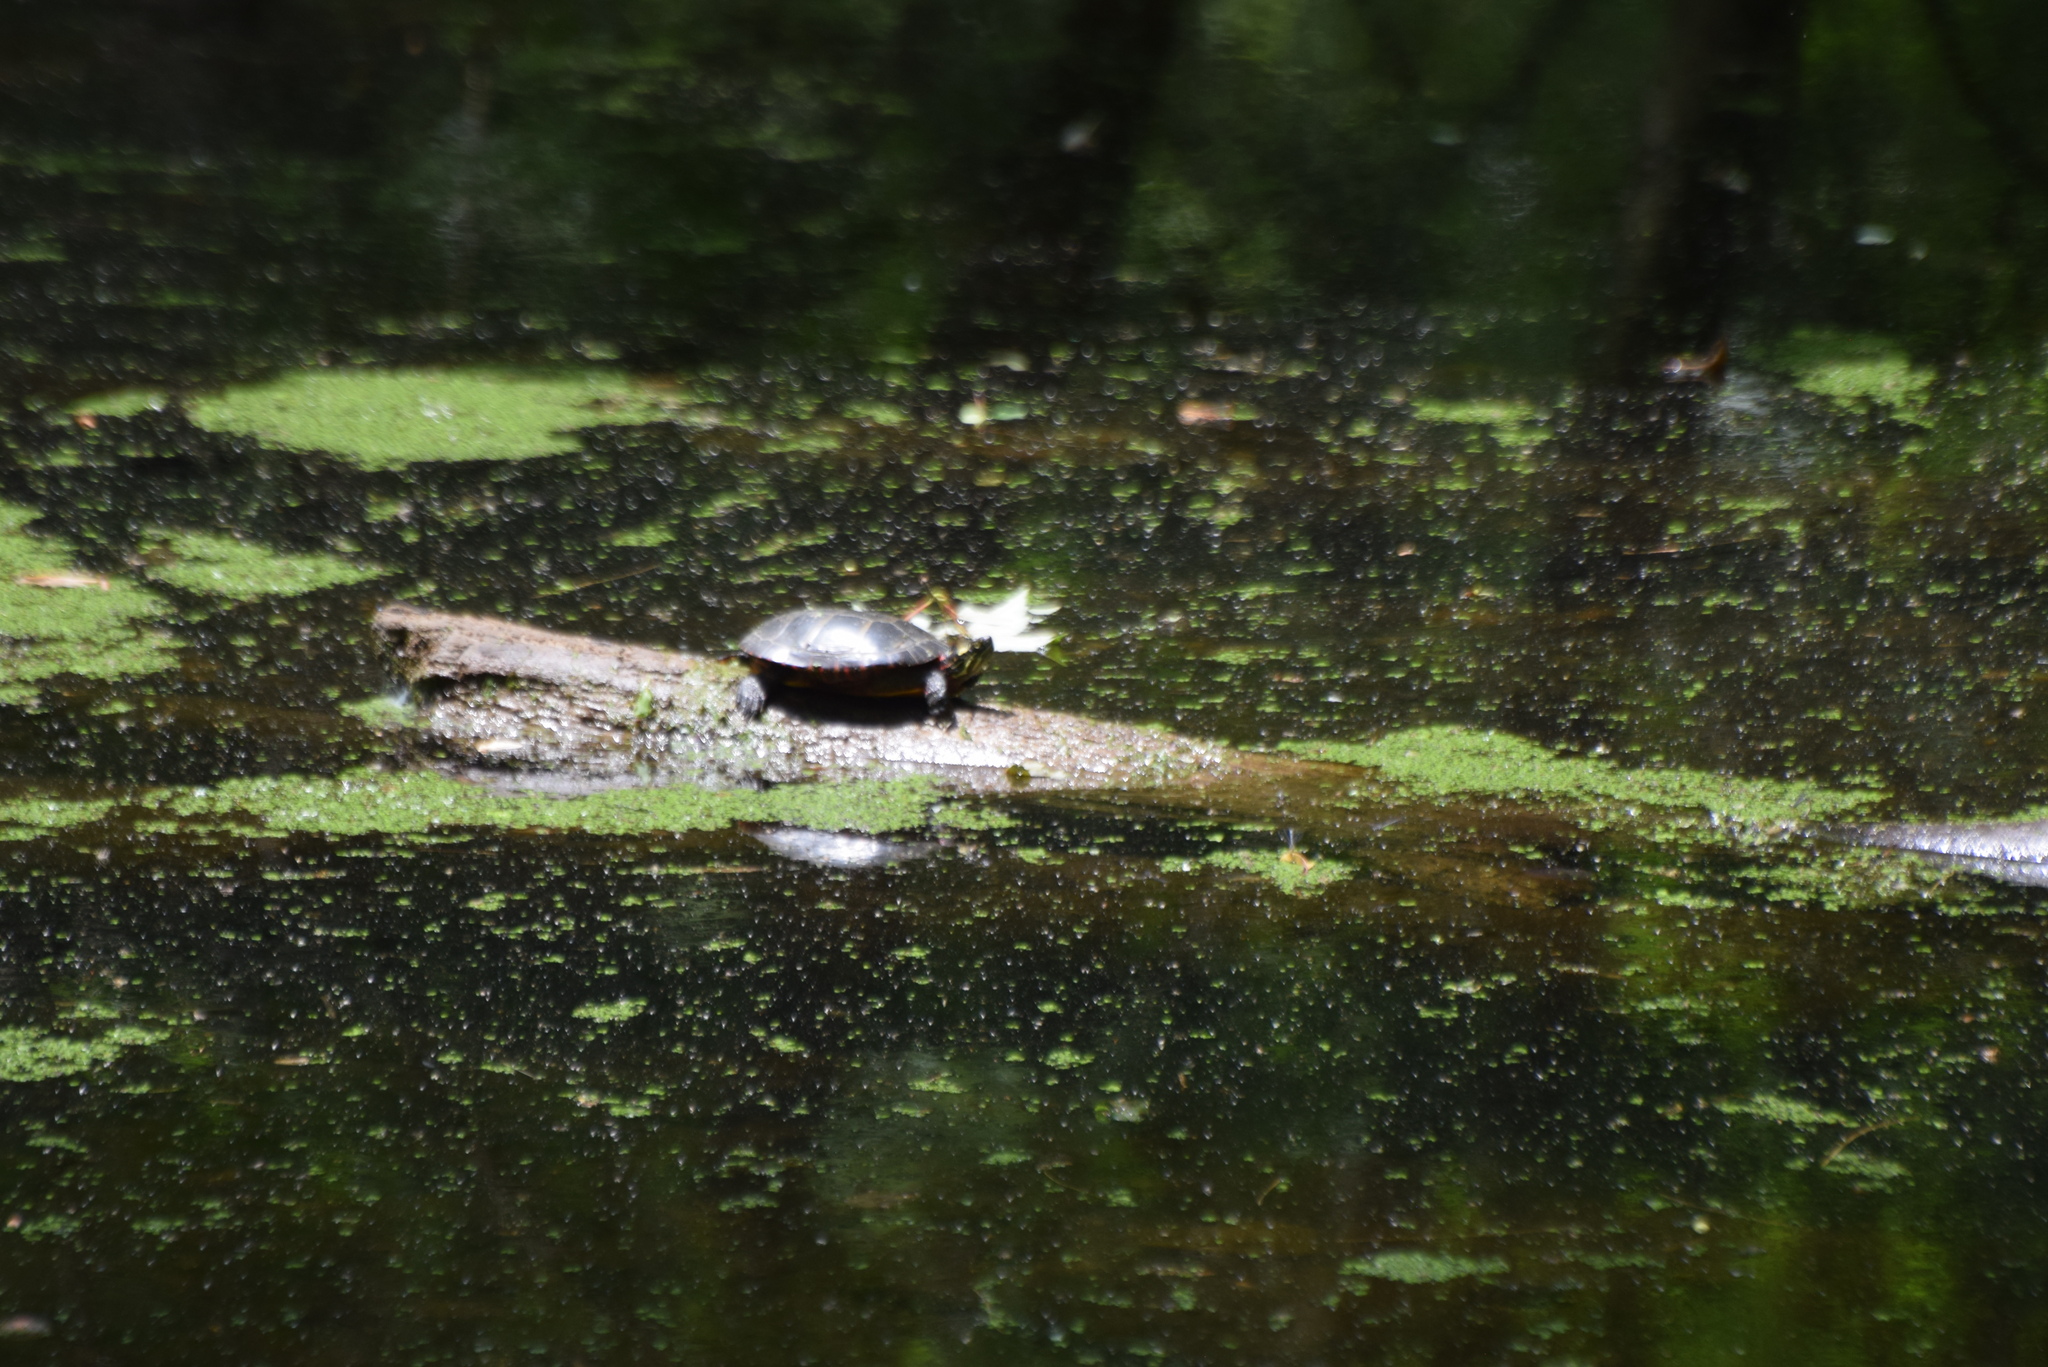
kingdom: Animalia
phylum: Chordata
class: Testudines
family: Emydidae
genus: Chrysemys
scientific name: Chrysemys picta
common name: Painted turtle
